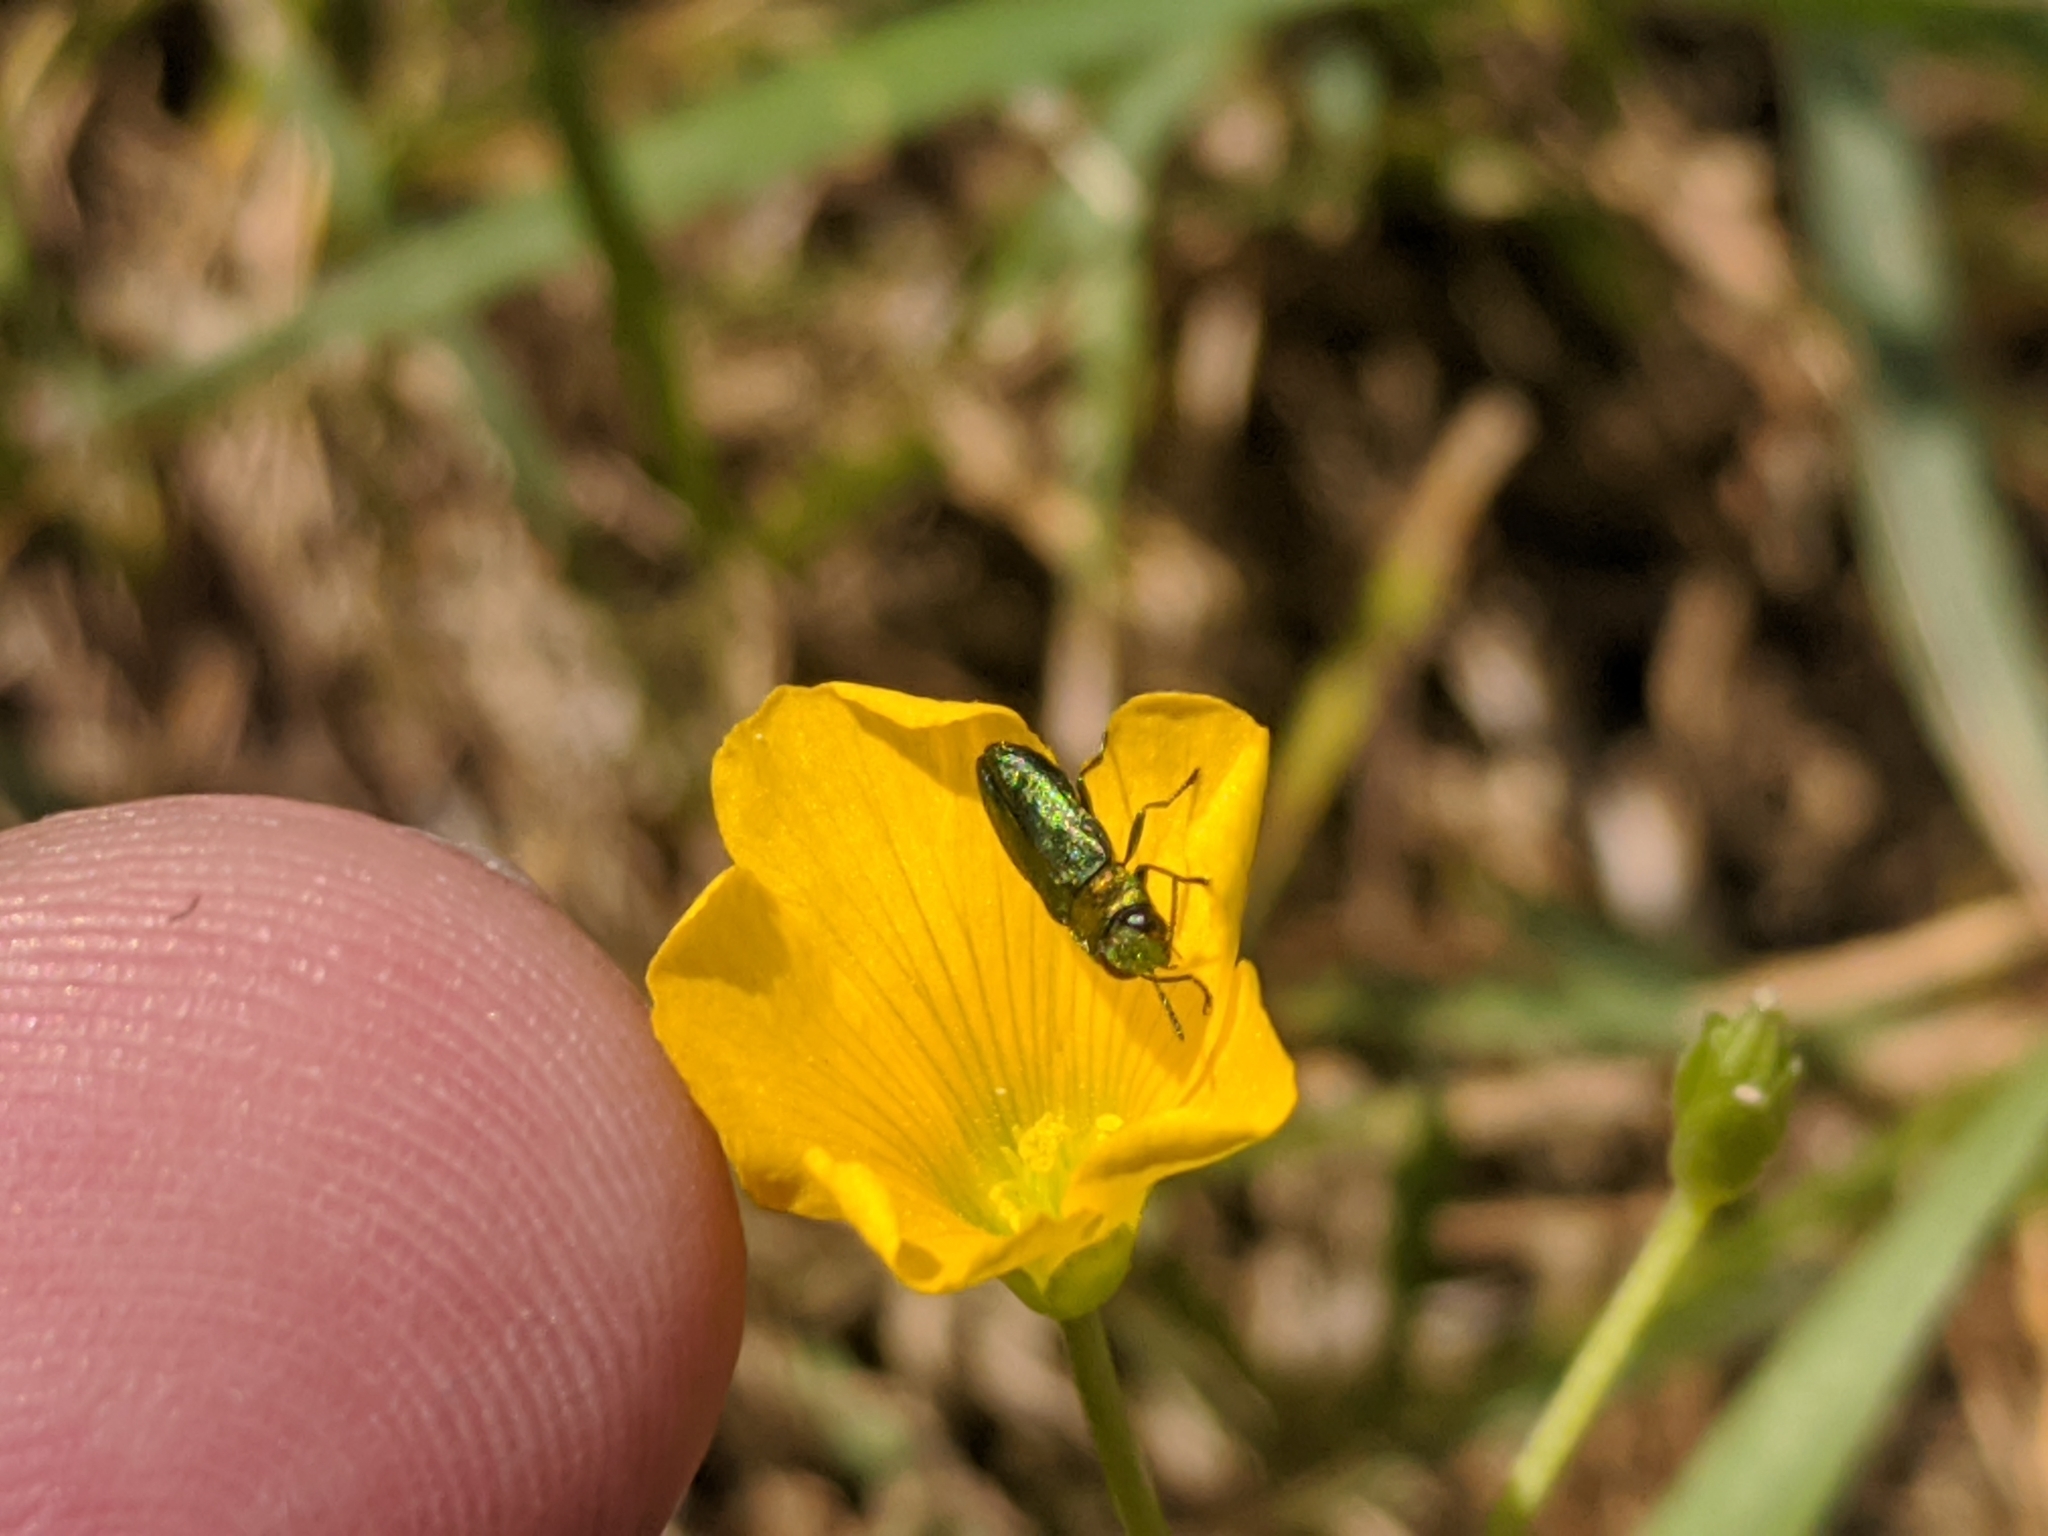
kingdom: Animalia
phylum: Arthropoda
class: Insecta
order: Coleoptera
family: Buprestidae
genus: Anthaxia
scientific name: Anthaxia nitidula
